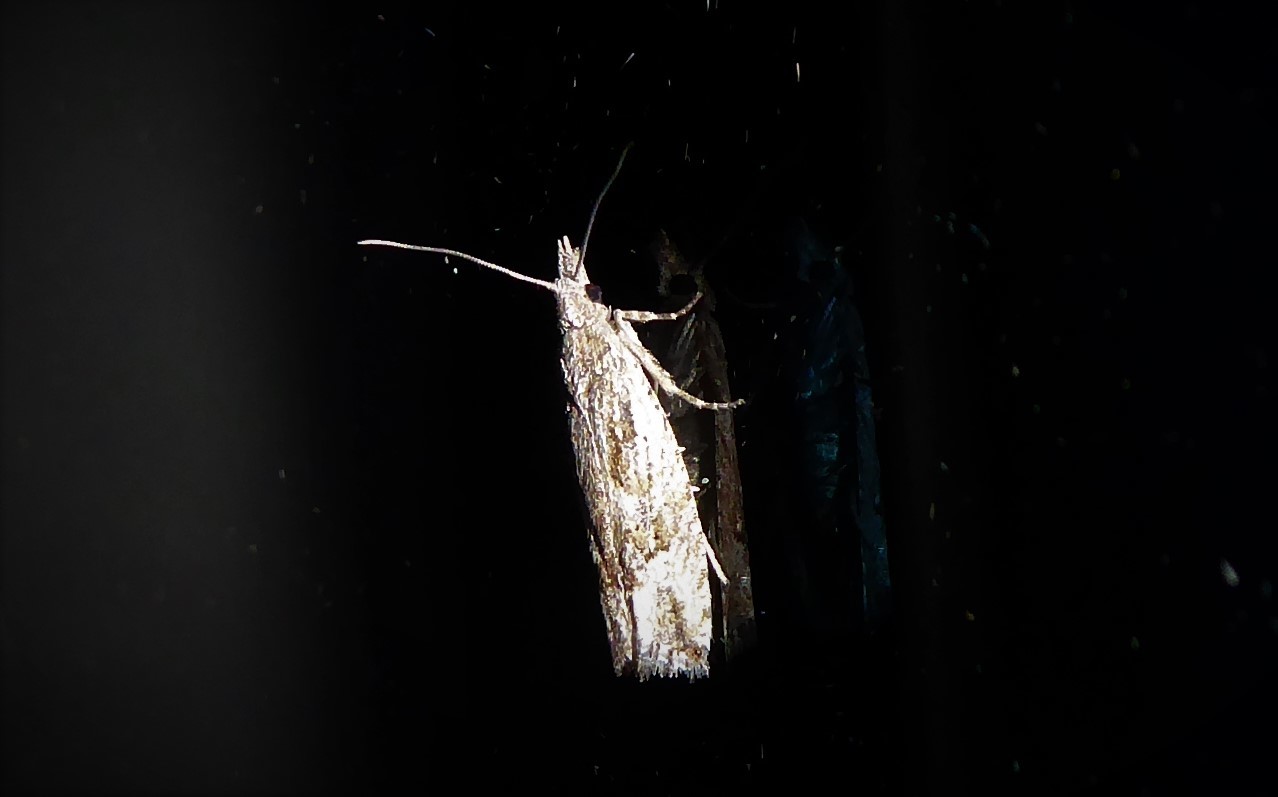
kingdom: Animalia
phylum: Arthropoda
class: Insecta
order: Lepidoptera
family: Tortricidae
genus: Strepsicrates
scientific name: Strepsicrates ejectana
